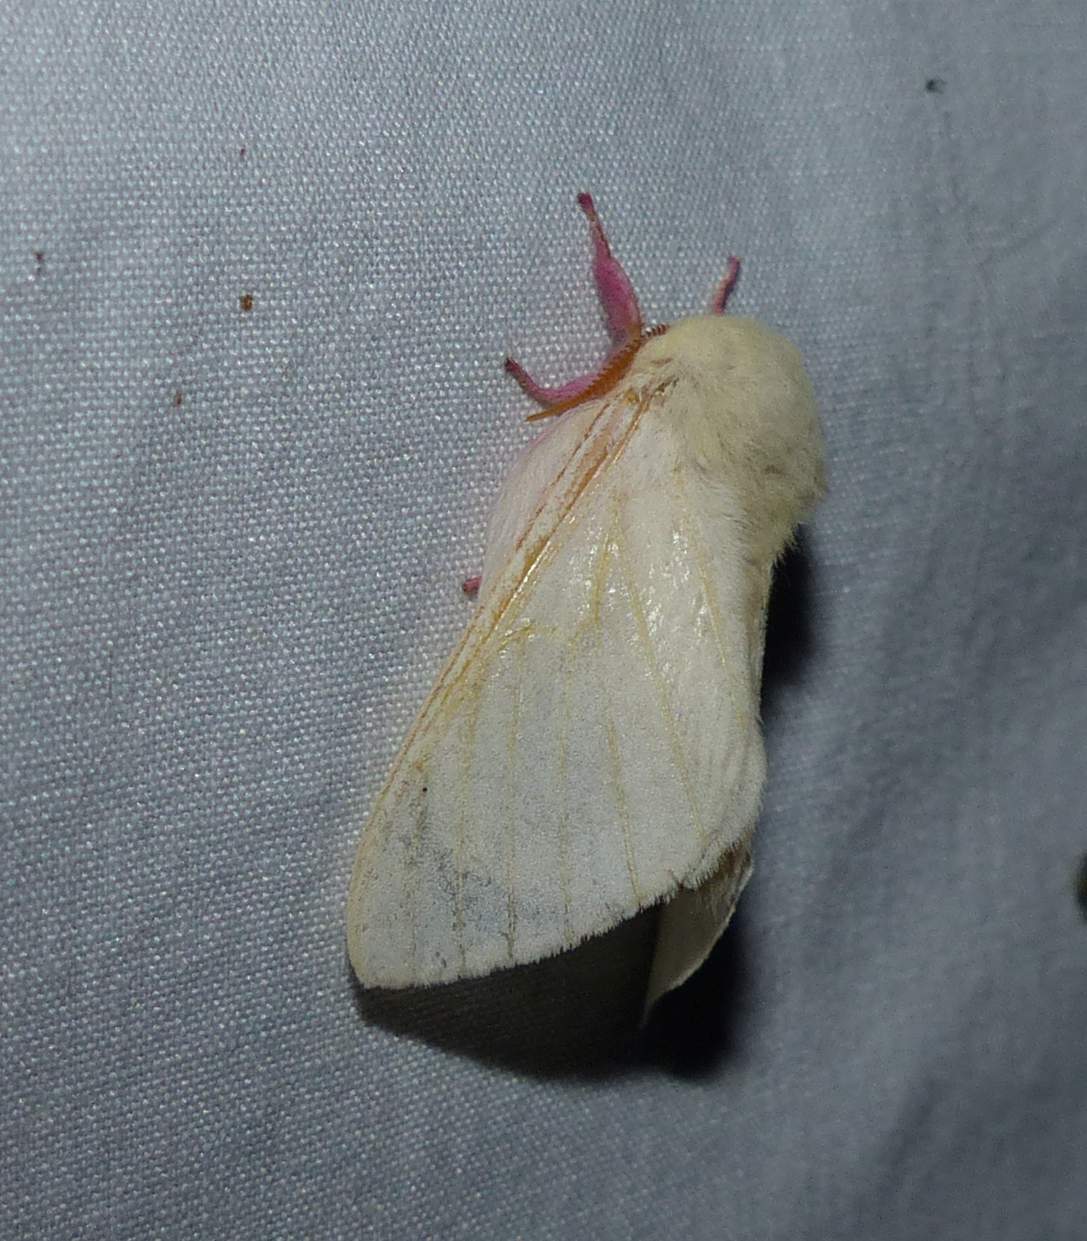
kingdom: Animalia
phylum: Arthropoda
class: Insecta
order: Lepidoptera
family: Saturniidae
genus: Dryocampa
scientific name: Dryocampa rubicunda
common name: Rosy maple moth
